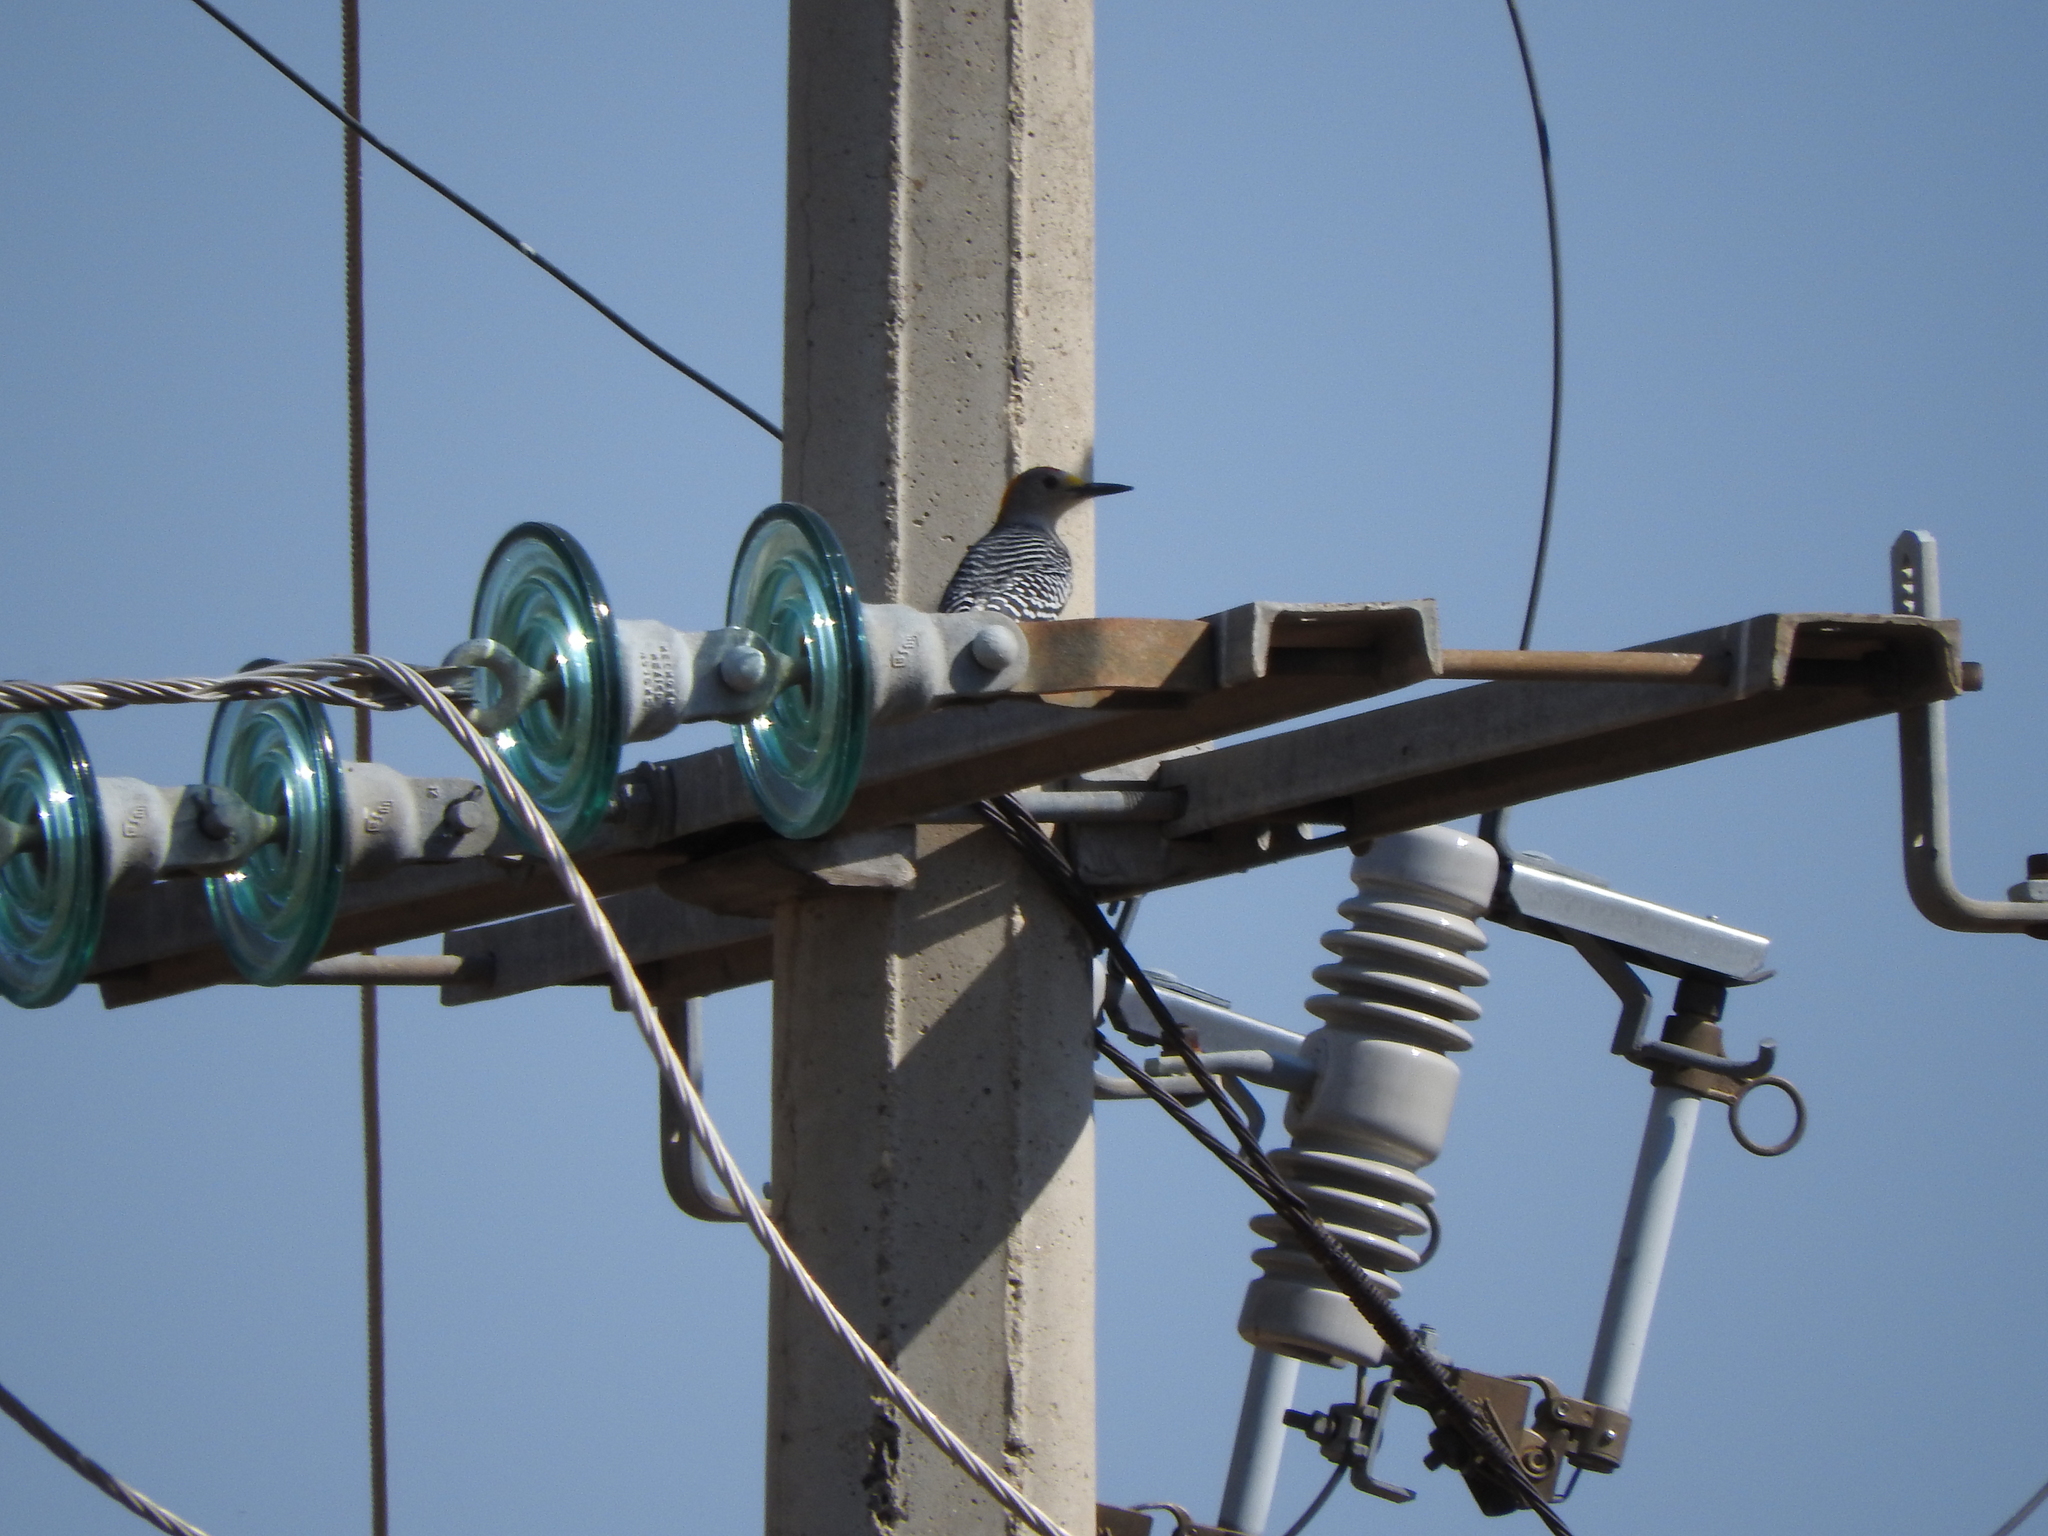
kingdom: Animalia
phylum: Chordata
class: Aves
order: Piciformes
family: Picidae
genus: Melanerpes
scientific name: Melanerpes aurifrons
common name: Golden-fronted woodpecker
